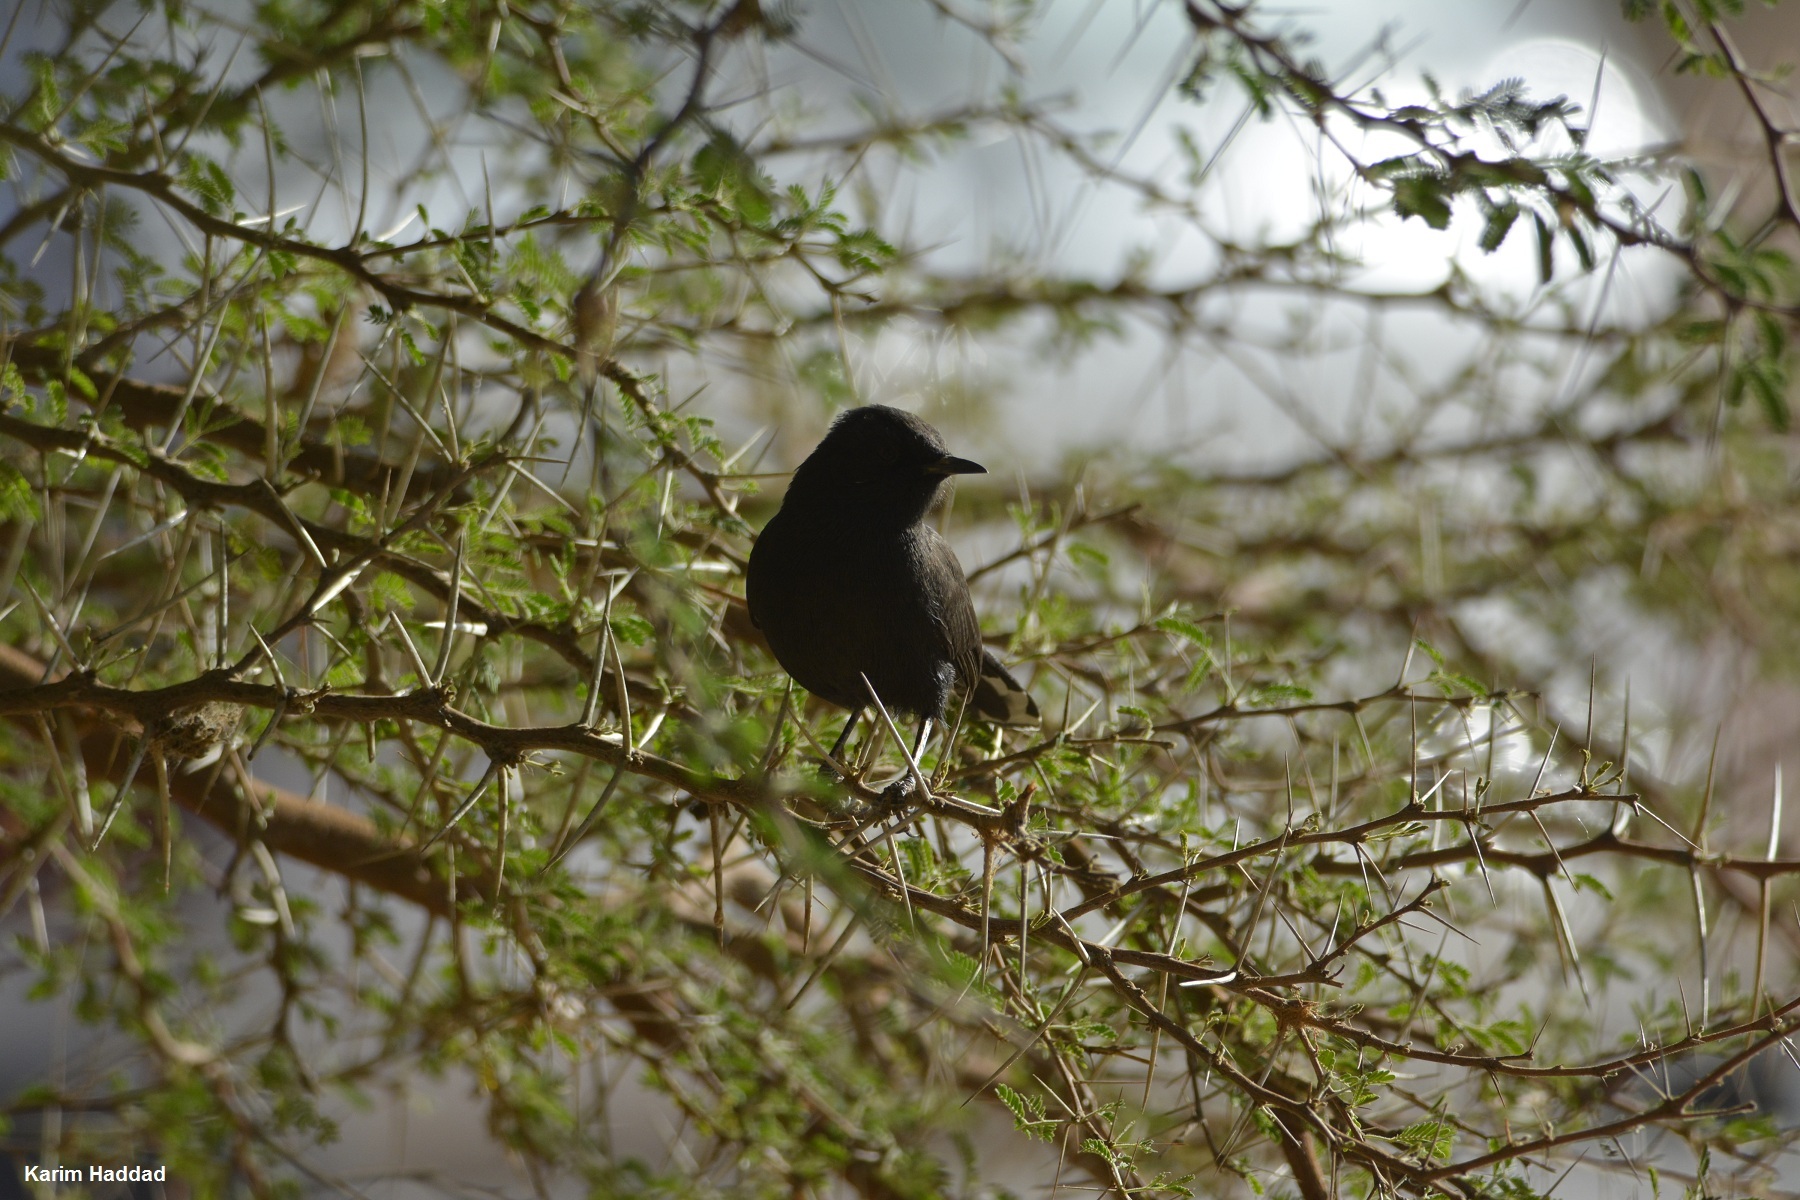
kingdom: Animalia
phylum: Chordata
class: Aves
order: Passeriformes
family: Muscicapidae
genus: Cercotrichas
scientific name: Cercotrichas podobe
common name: Black scrub robin
